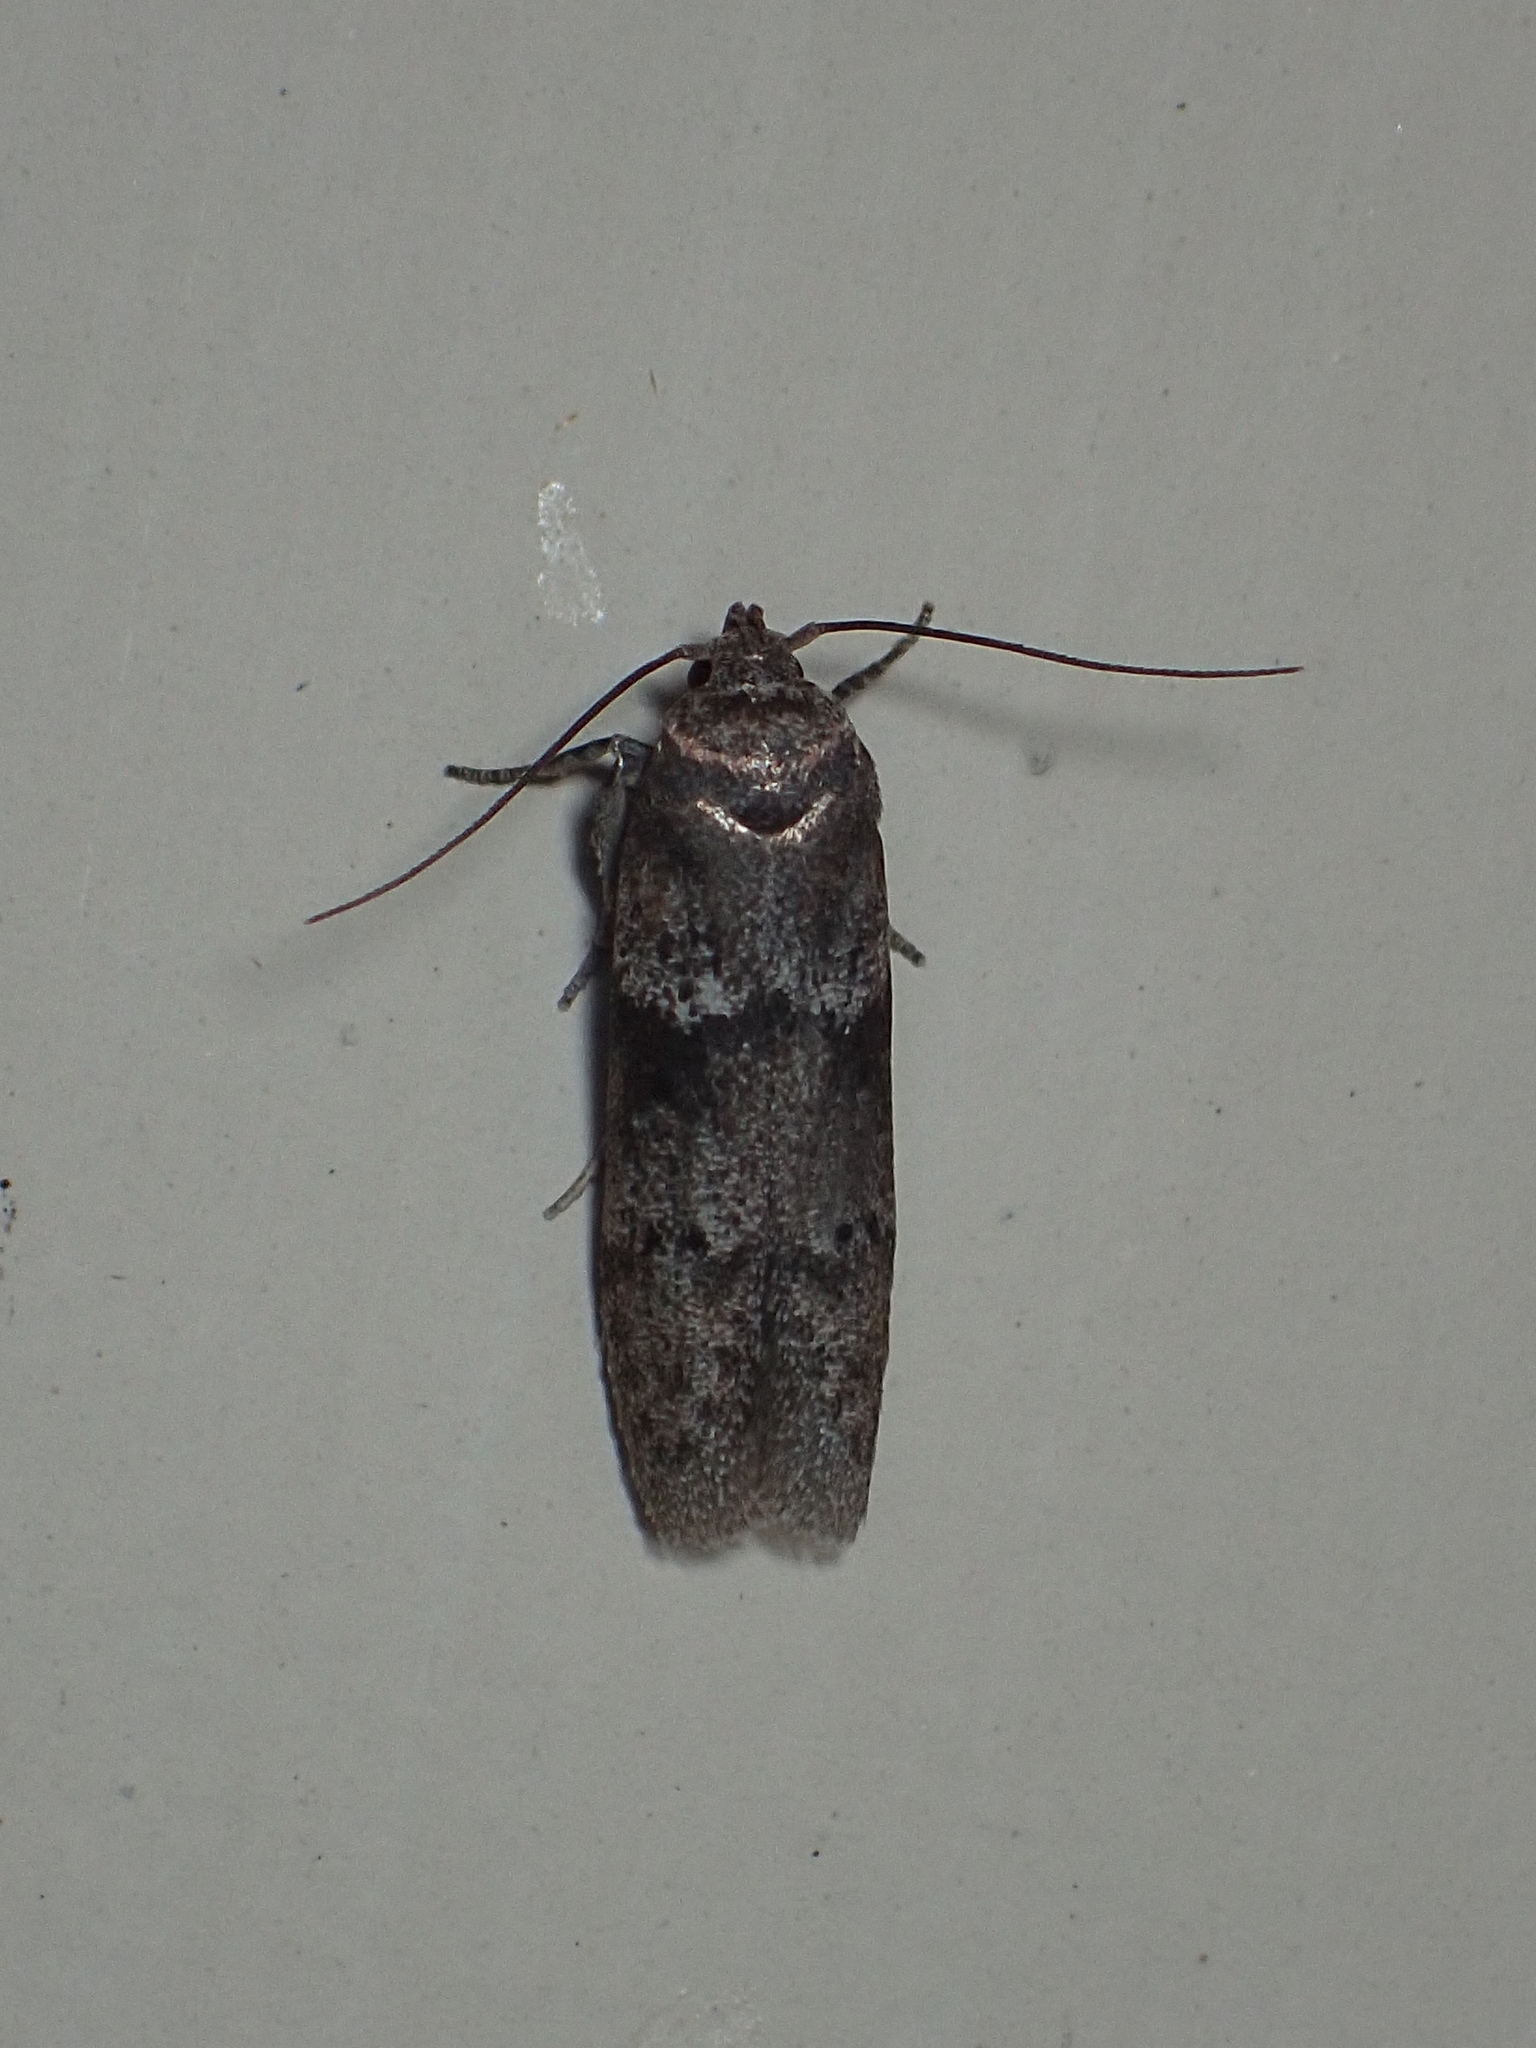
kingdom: Animalia
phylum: Arthropoda
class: Insecta
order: Lepidoptera
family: Blastobasidae
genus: Blastobasis
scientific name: Blastobasis glandulella
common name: Acorn moth
